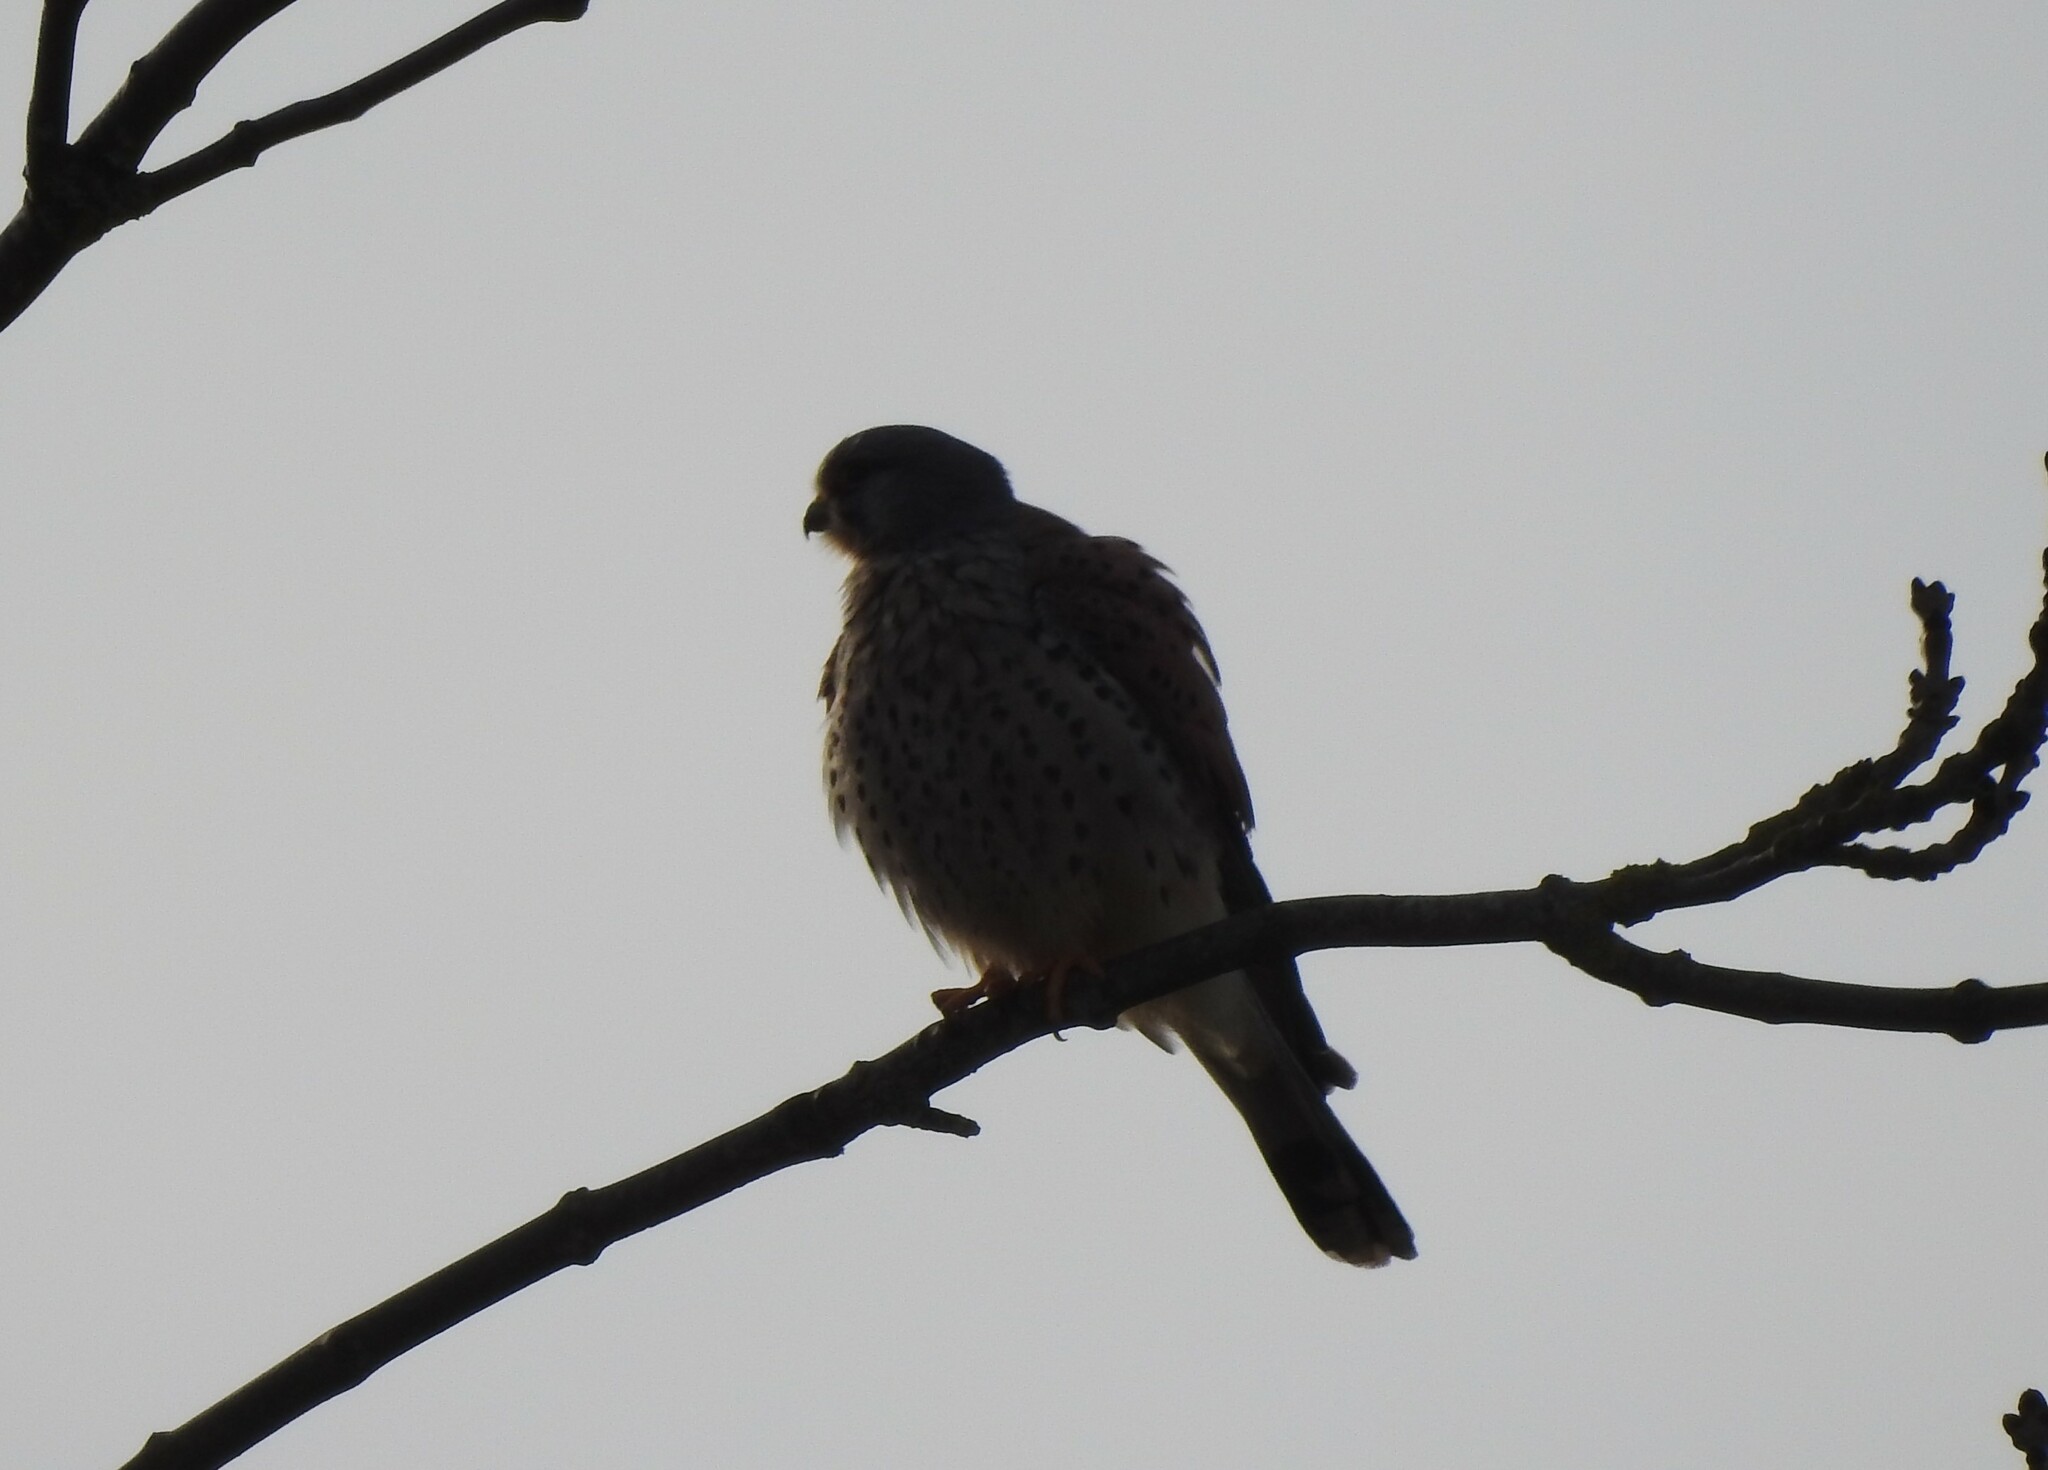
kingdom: Animalia
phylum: Chordata
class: Aves
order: Falconiformes
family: Falconidae
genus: Falco
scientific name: Falco tinnunculus
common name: Common kestrel
